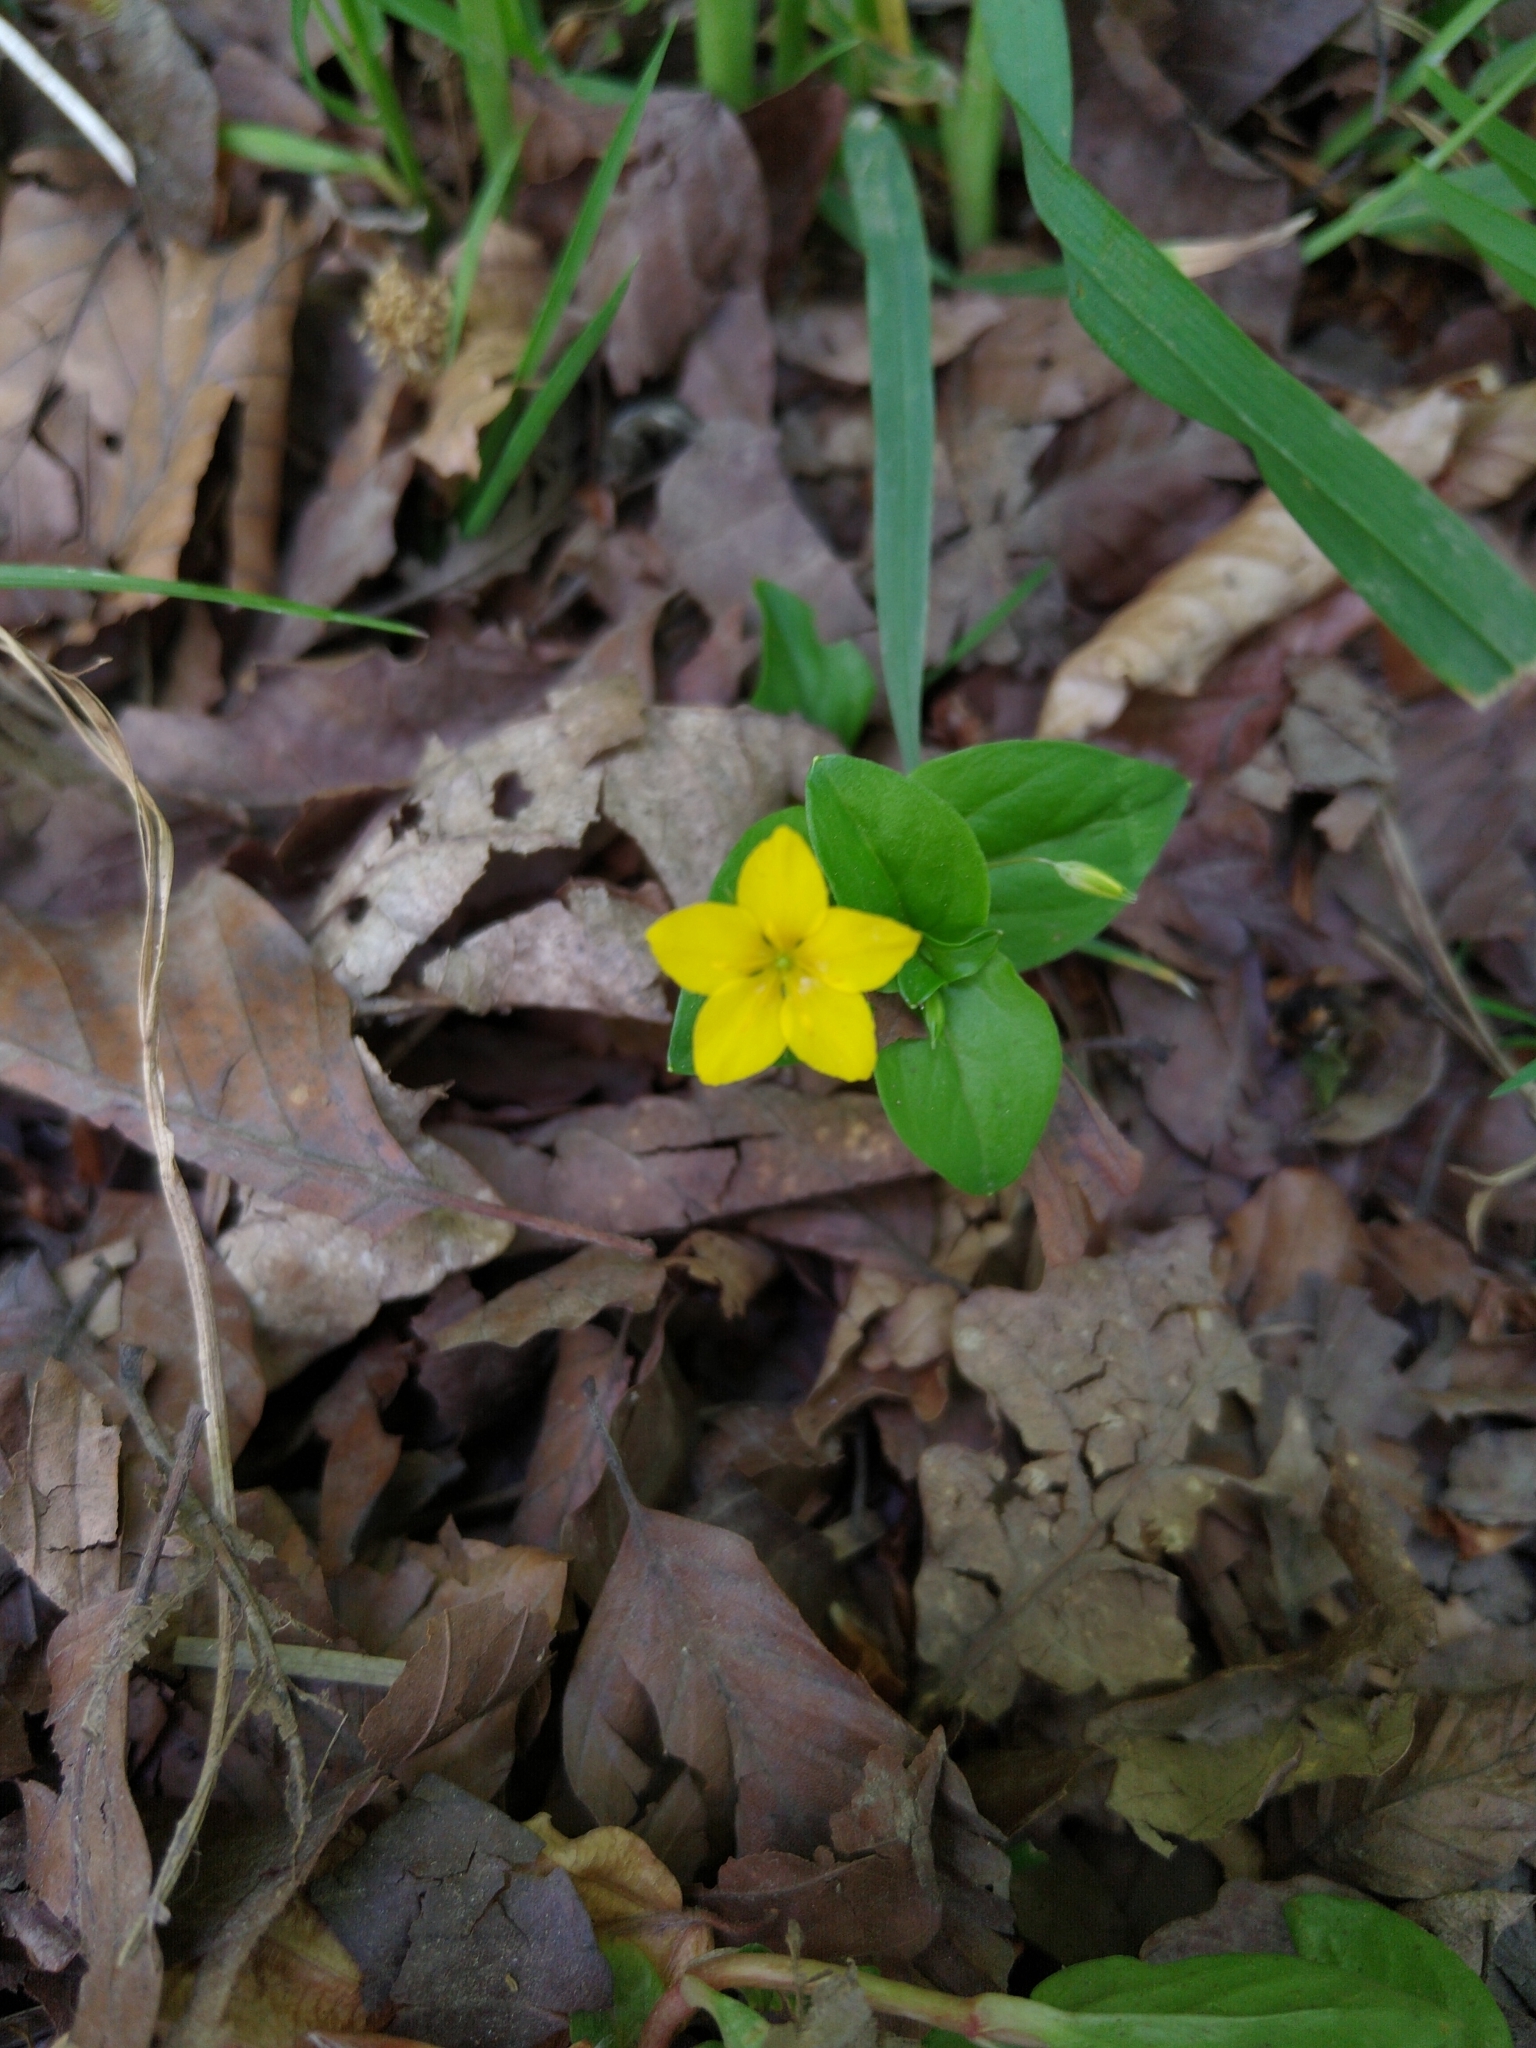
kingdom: Plantae
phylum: Tracheophyta
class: Magnoliopsida
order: Ericales
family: Primulaceae
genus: Lysimachia
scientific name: Lysimachia nemorum
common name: Yellow pimpernel
